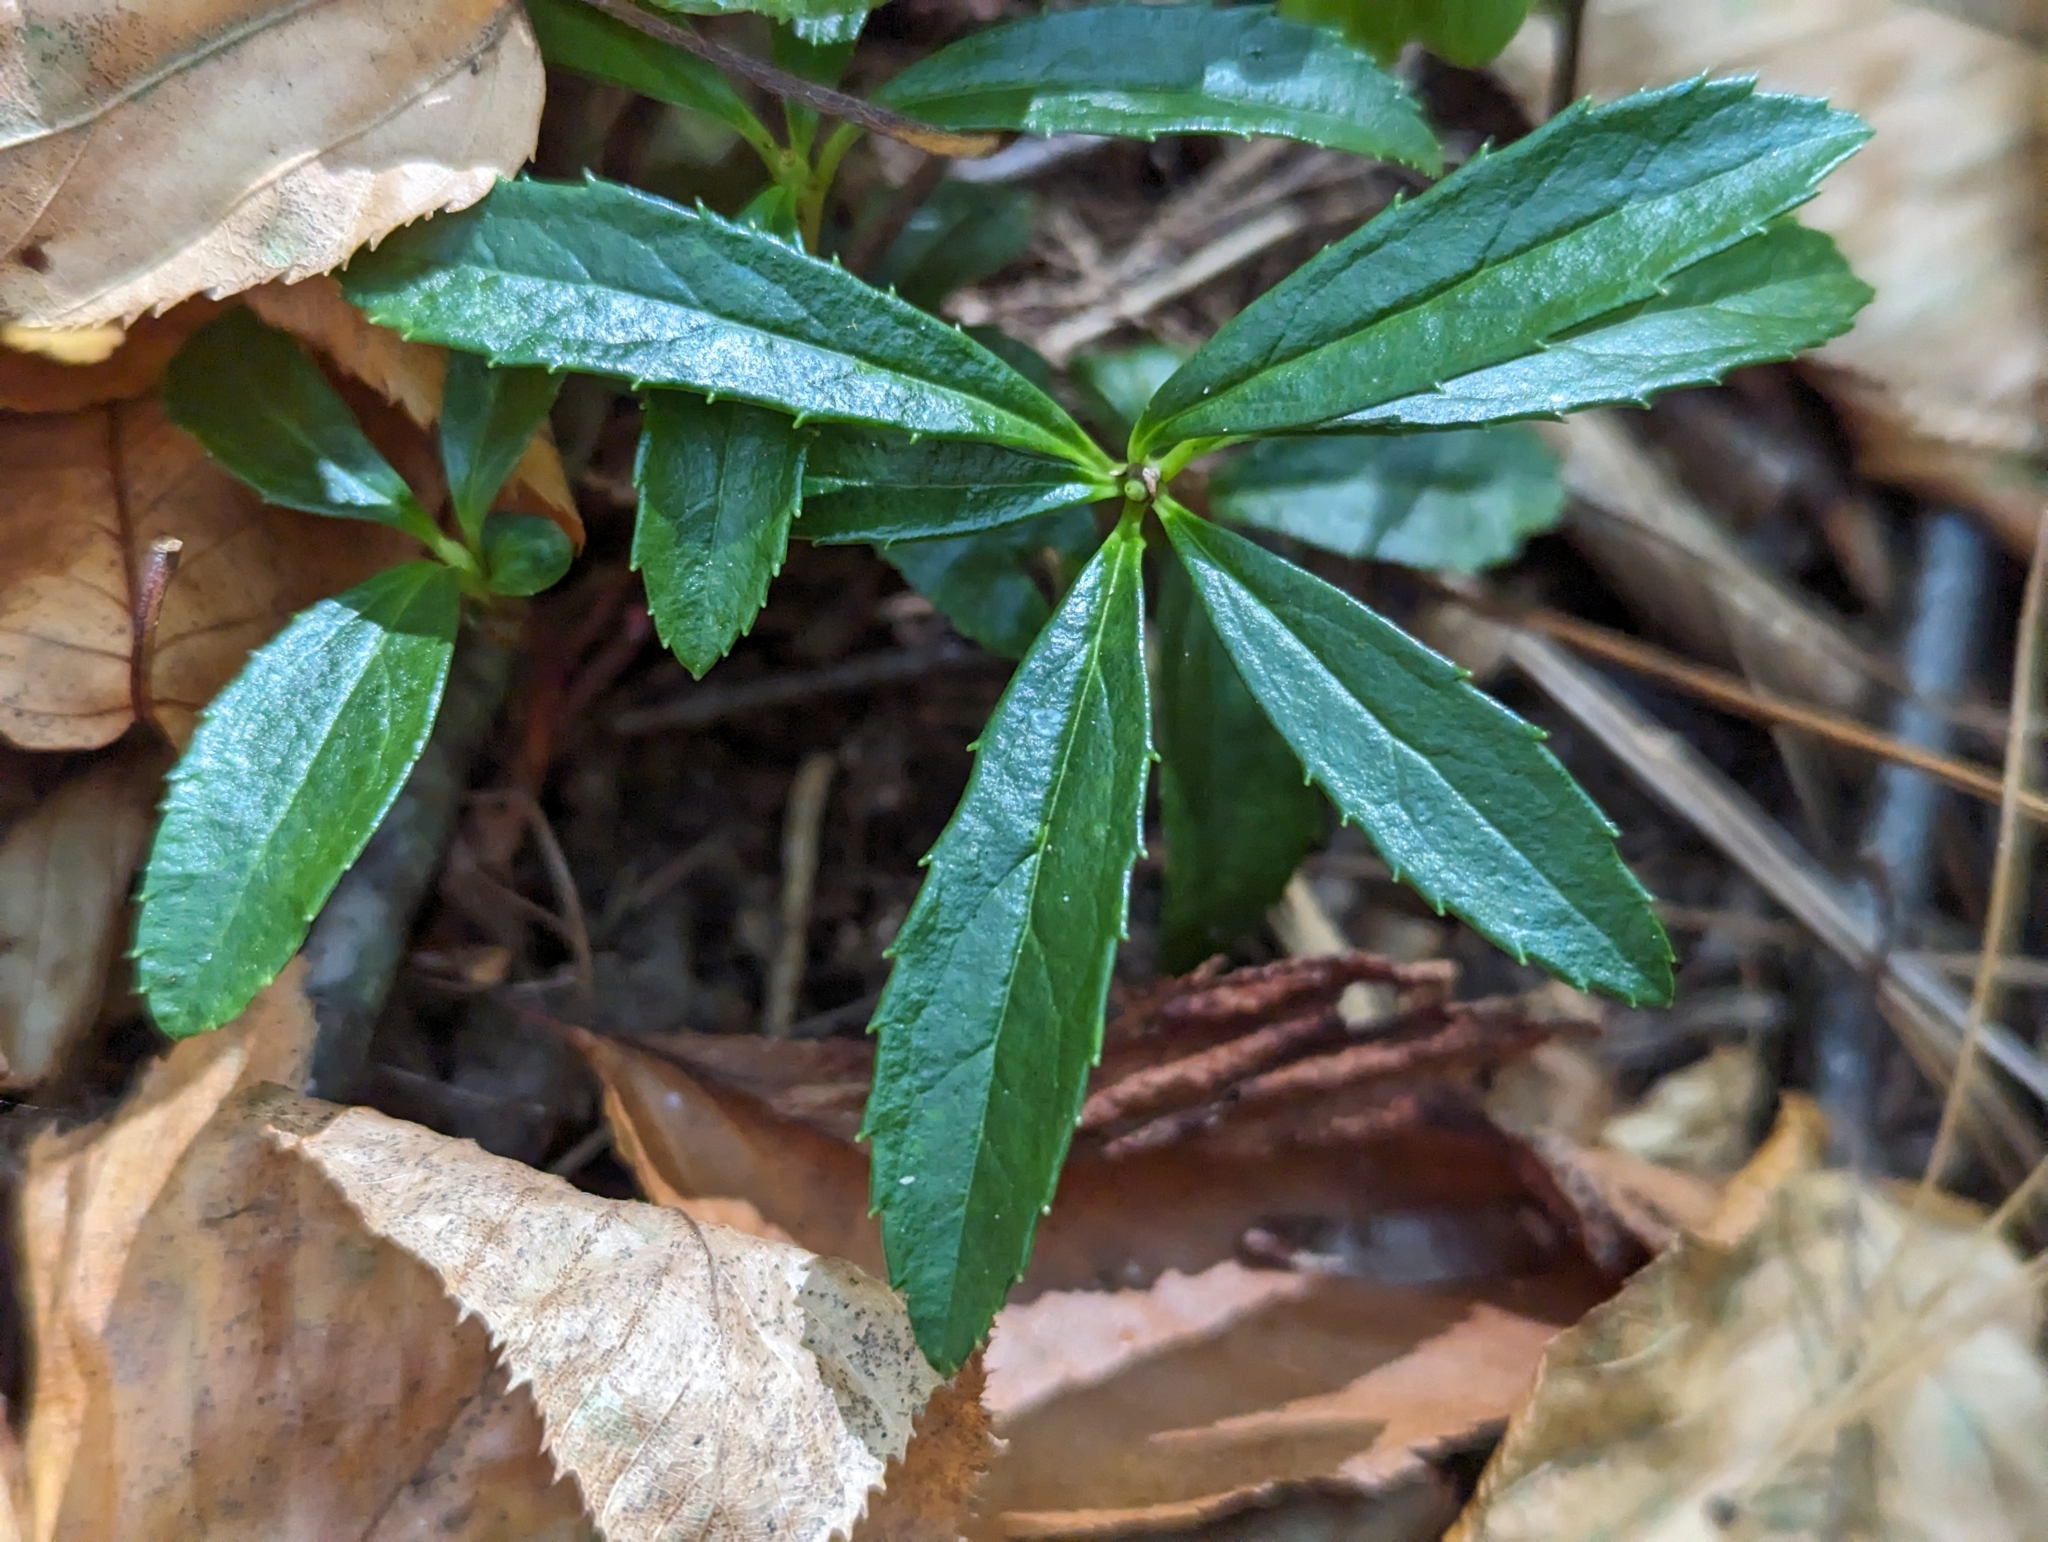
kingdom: Plantae
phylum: Tracheophyta
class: Magnoliopsida
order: Ericales
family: Ericaceae
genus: Chimaphila
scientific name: Chimaphila umbellata
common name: Pipsissewa
